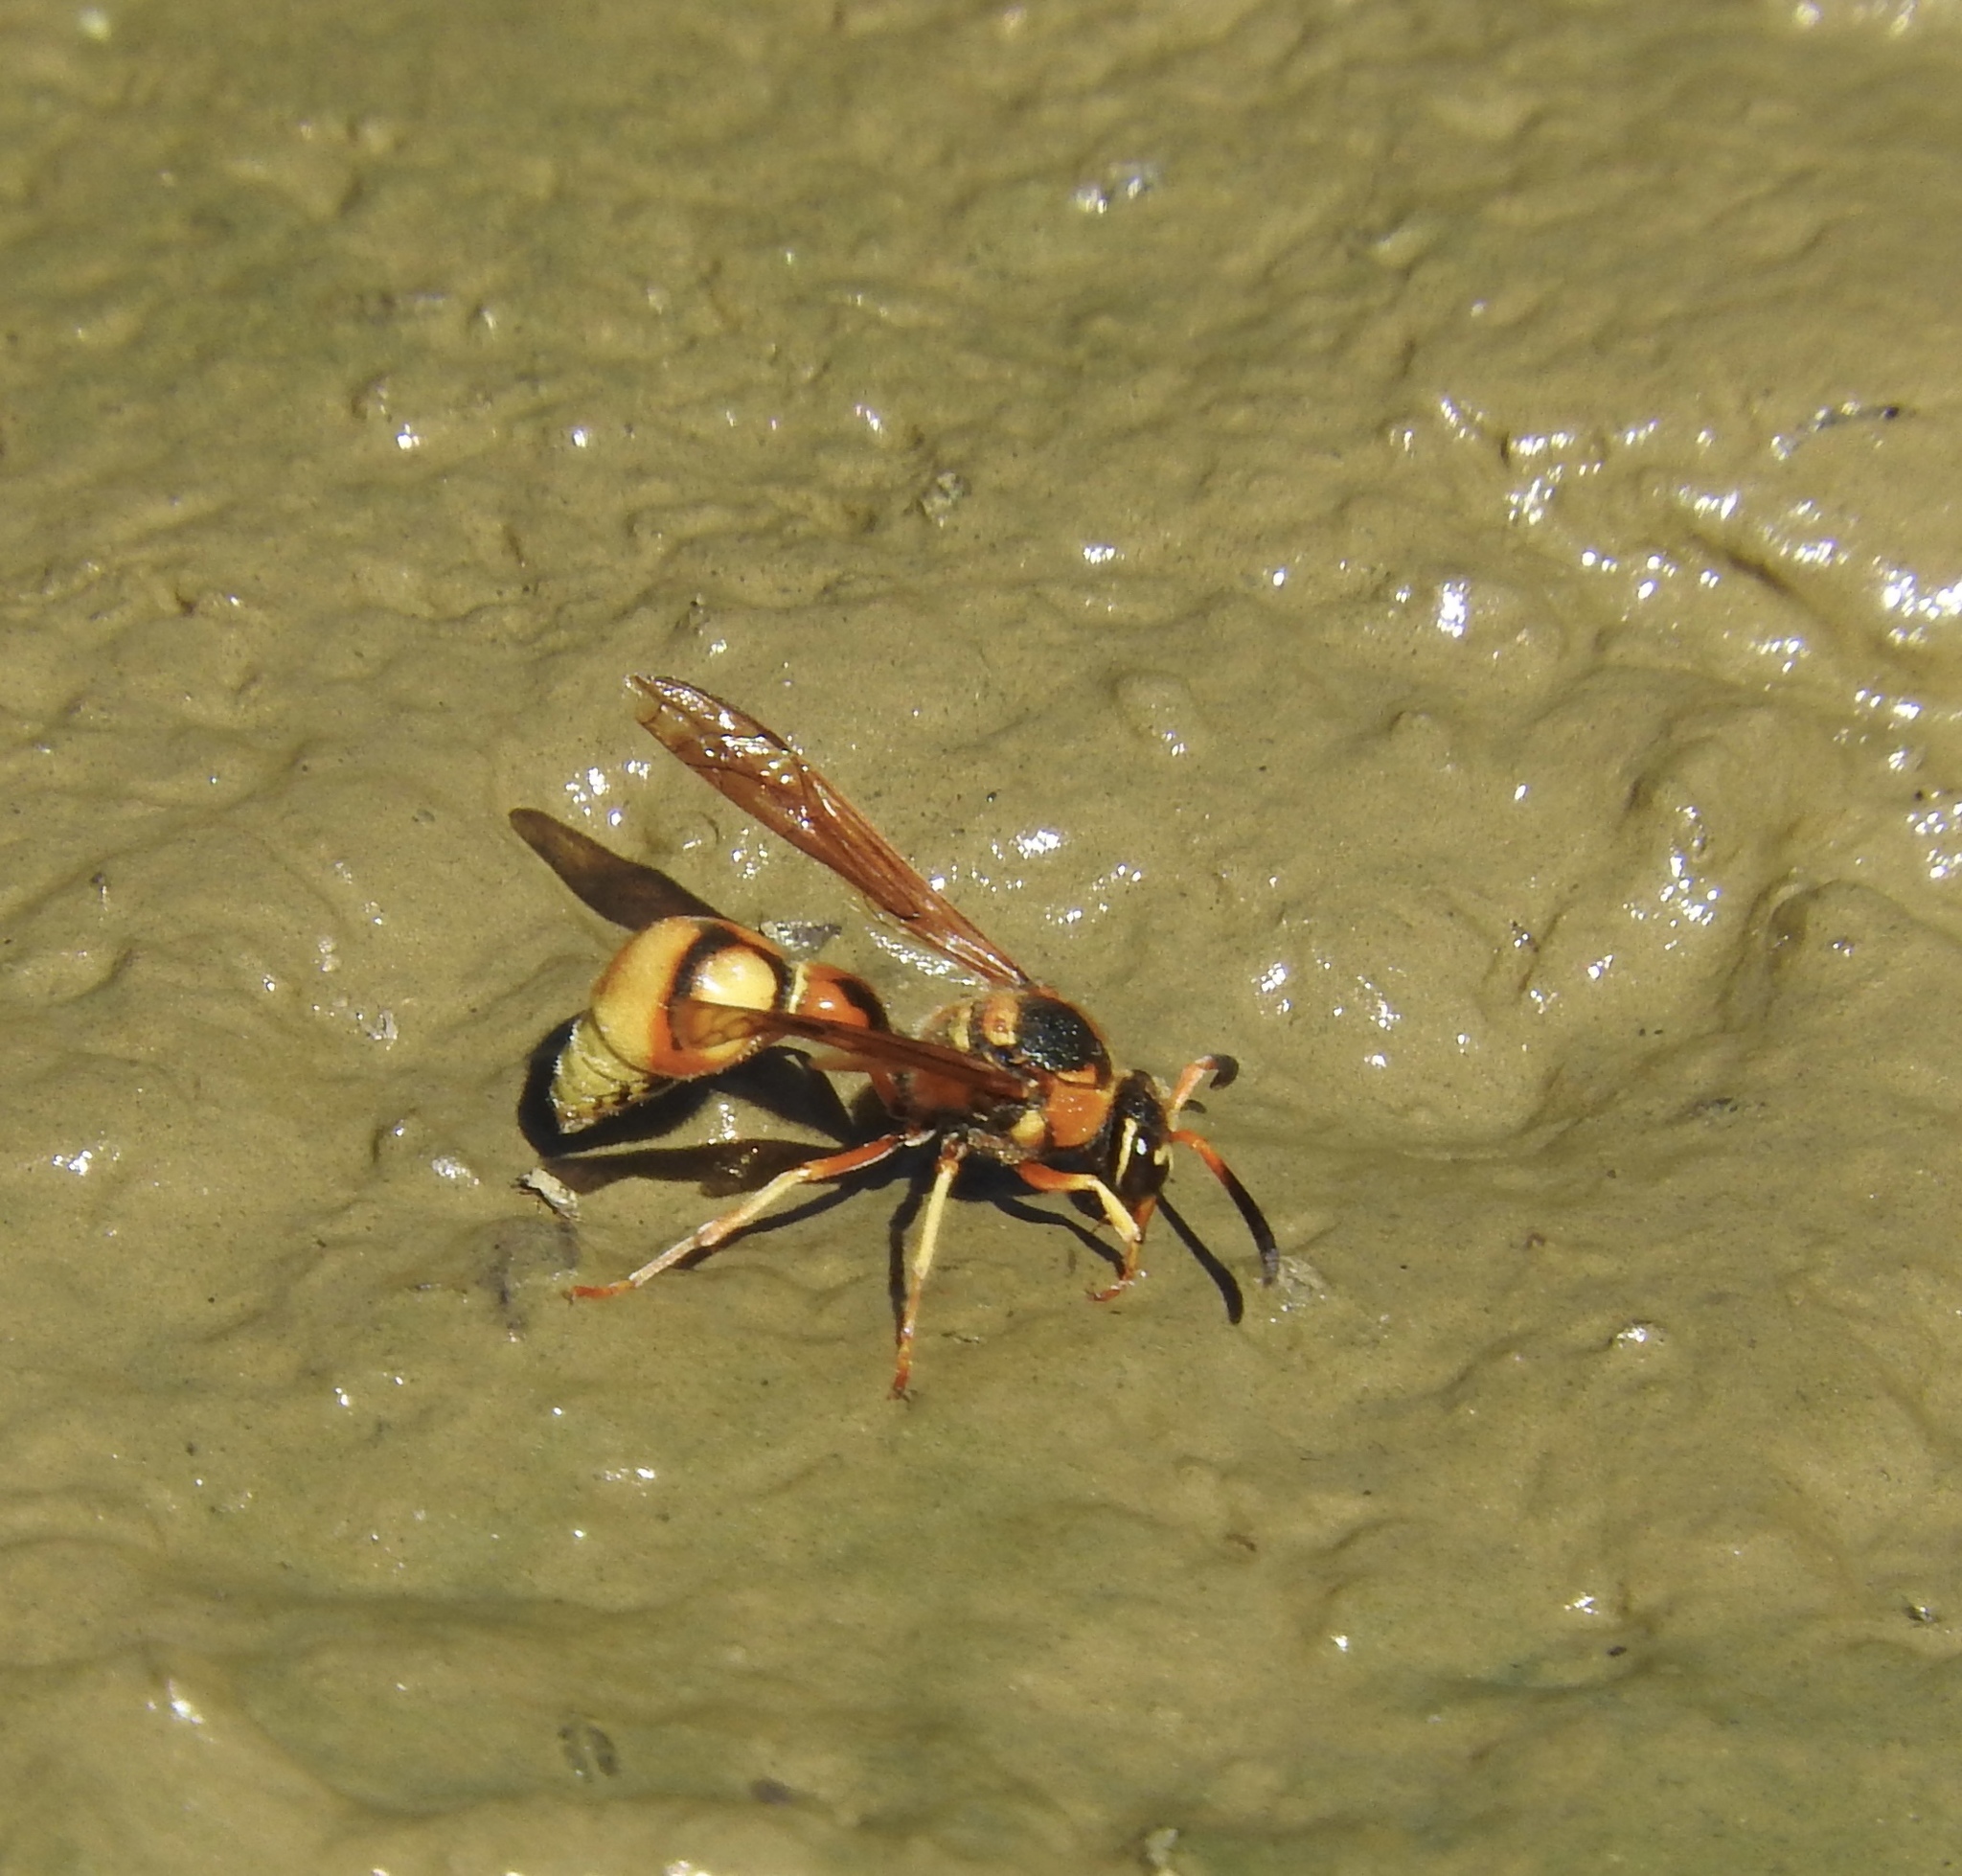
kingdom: Animalia
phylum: Arthropoda
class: Insecta
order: Hymenoptera
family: Vespidae
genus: Eumenes
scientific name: Eumenes bollii
